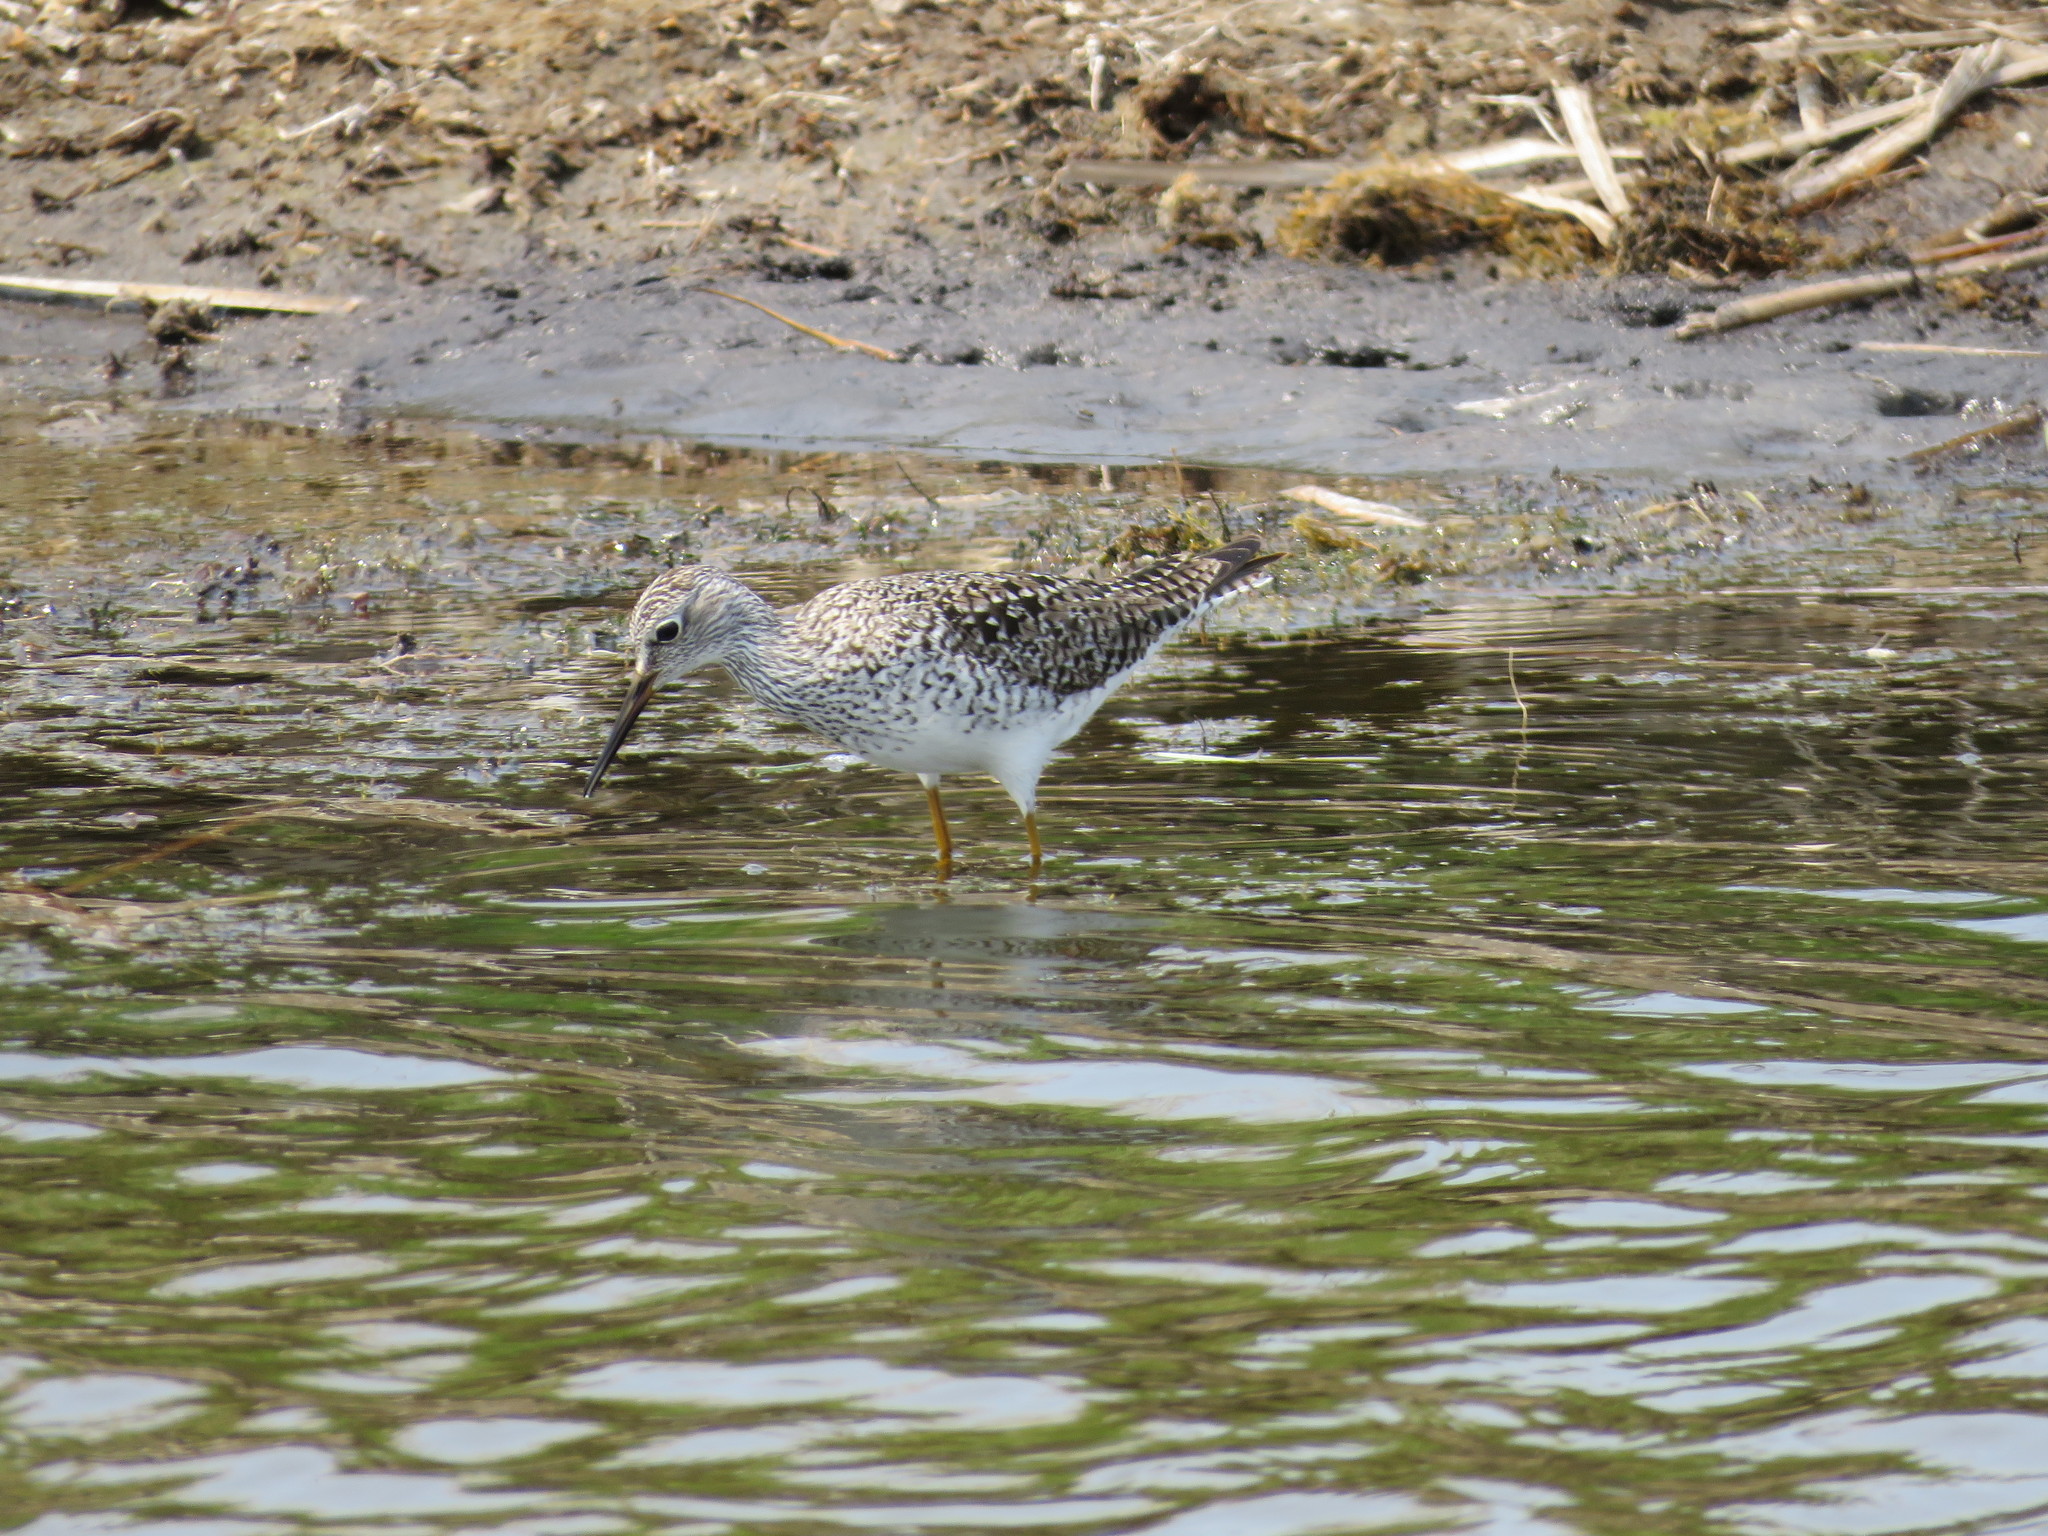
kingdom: Animalia
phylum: Chordata
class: Aves
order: Charadriiformes
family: Scolopacidae
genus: Tringa
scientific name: Tringa flavipes
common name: Lesser yellowlegs
